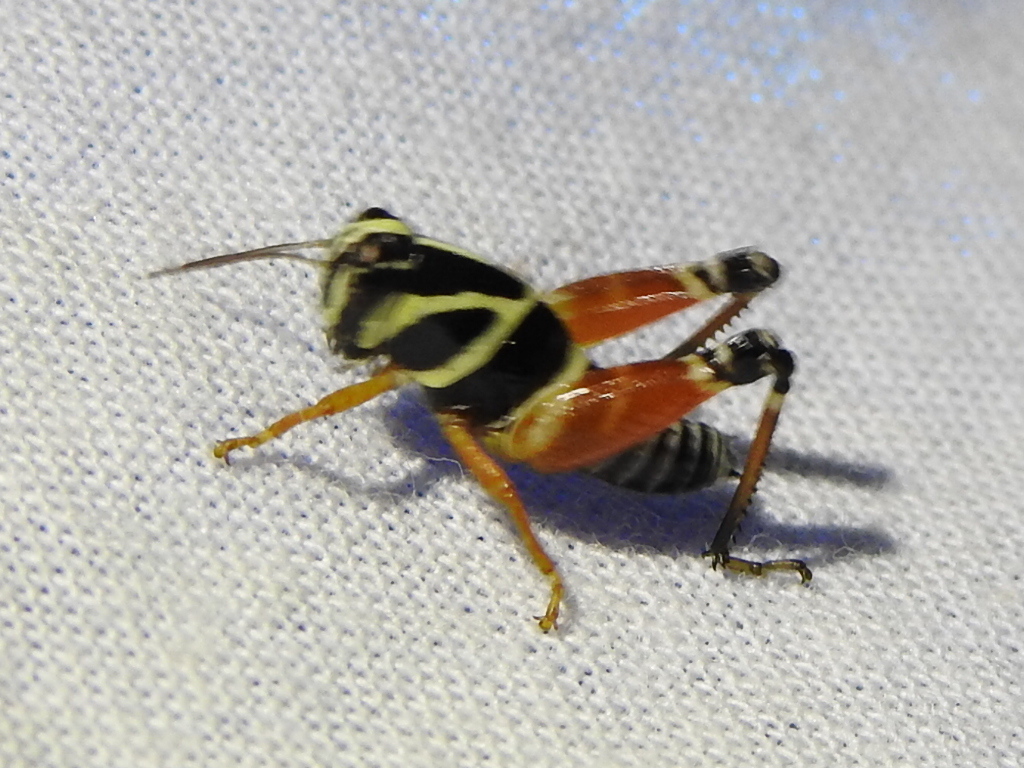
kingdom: Animalia
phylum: Arthropoda
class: Insecta
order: Orthoptera
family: Acrididae
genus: Aidemona
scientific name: Aidemona azteca
